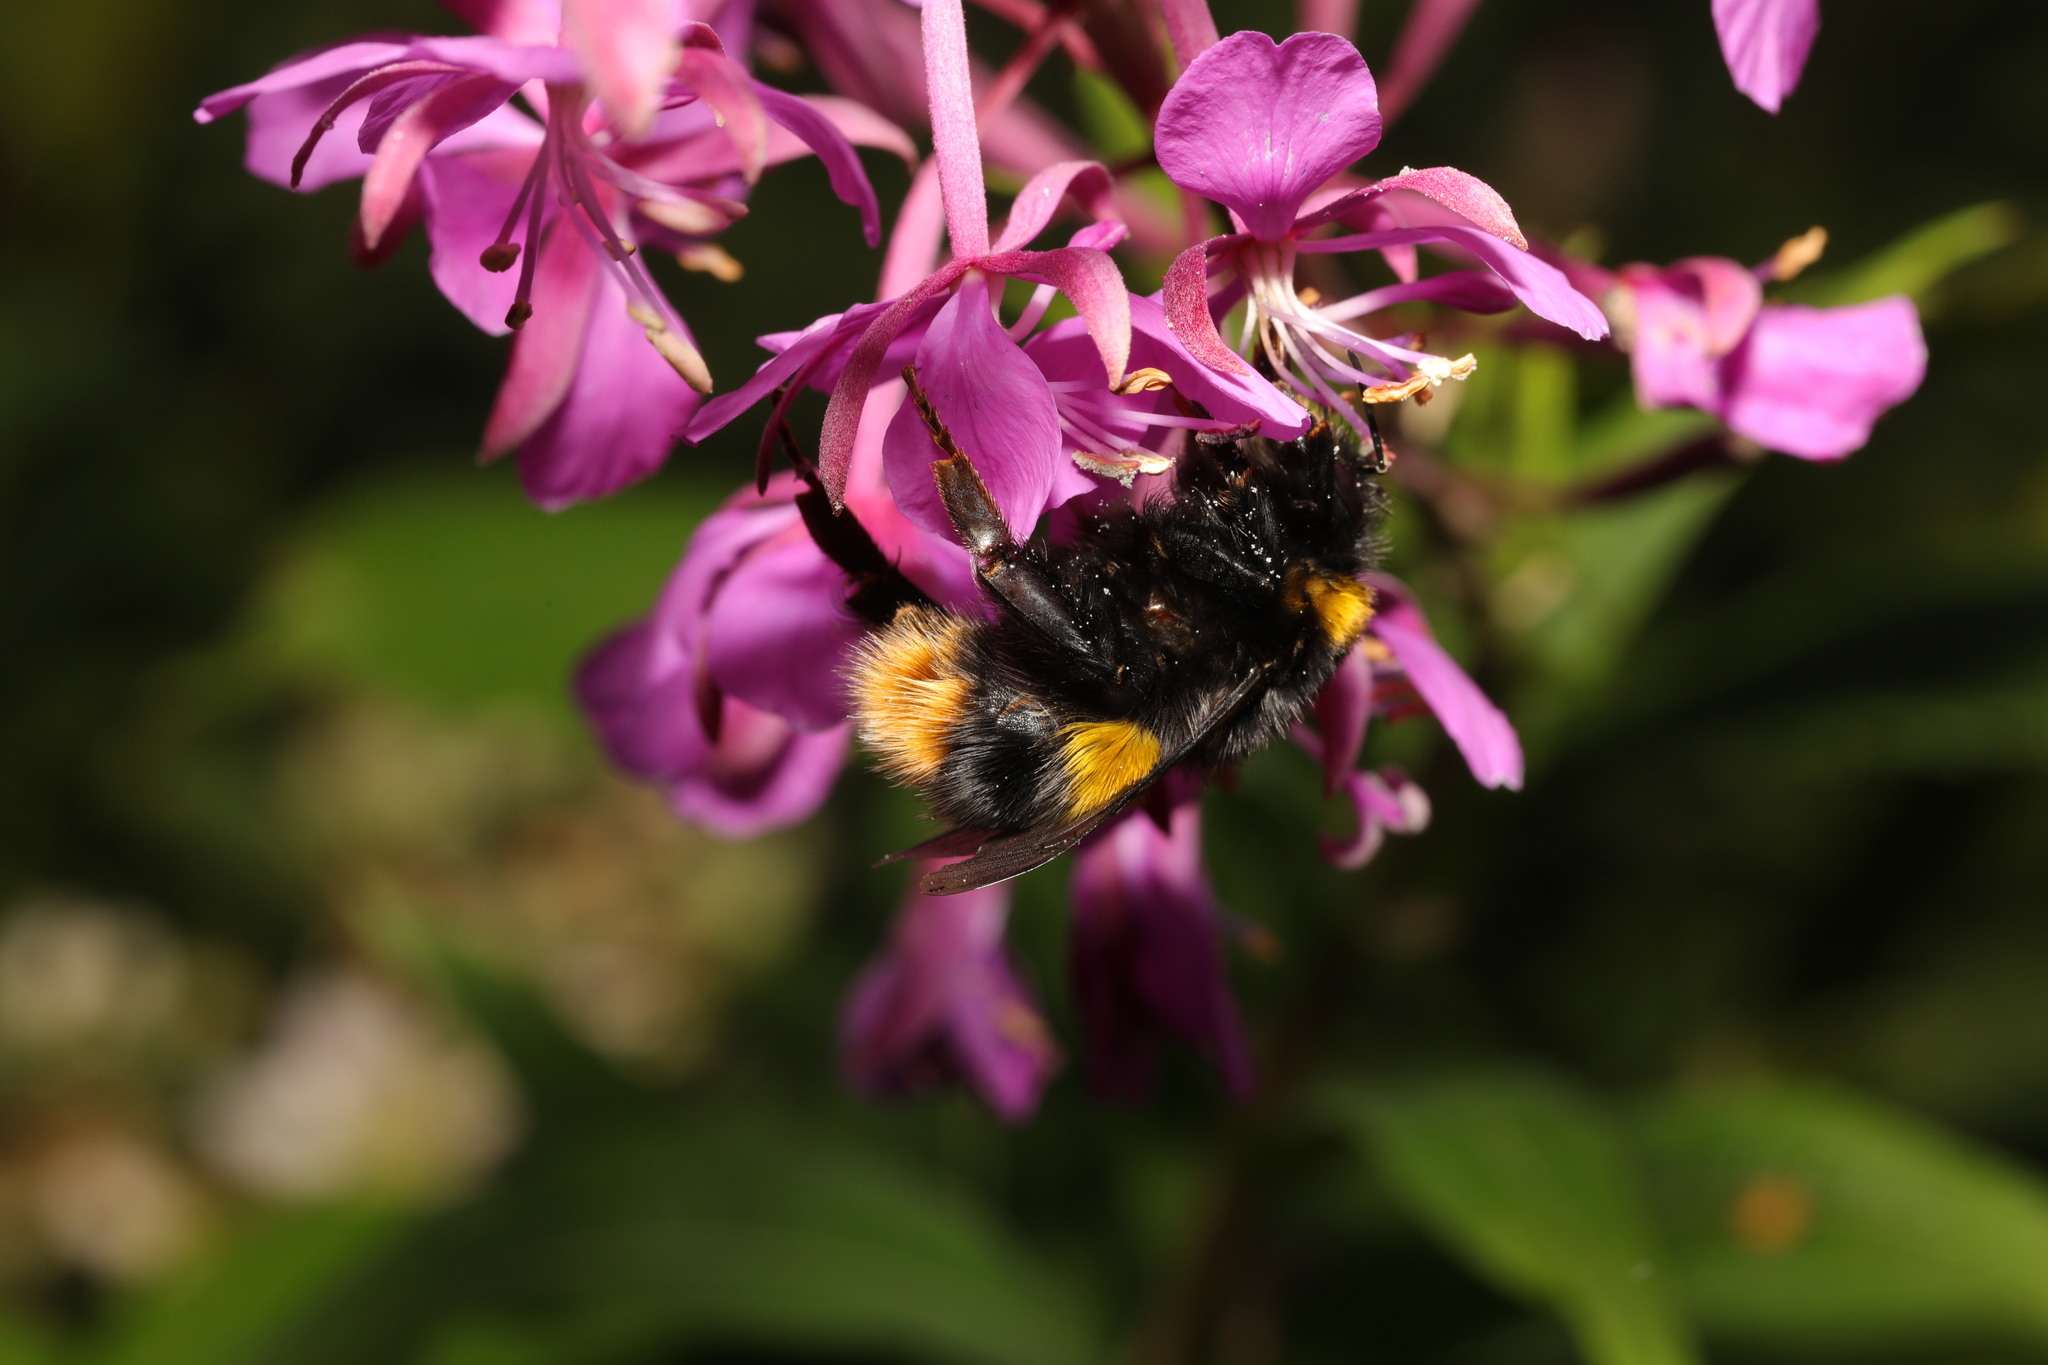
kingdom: Animalia
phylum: Arthropoda
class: Insecta
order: Hymenoptera
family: Apidae
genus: Bombus
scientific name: Bombus terrestris
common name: Buff-tailed bumblebee
